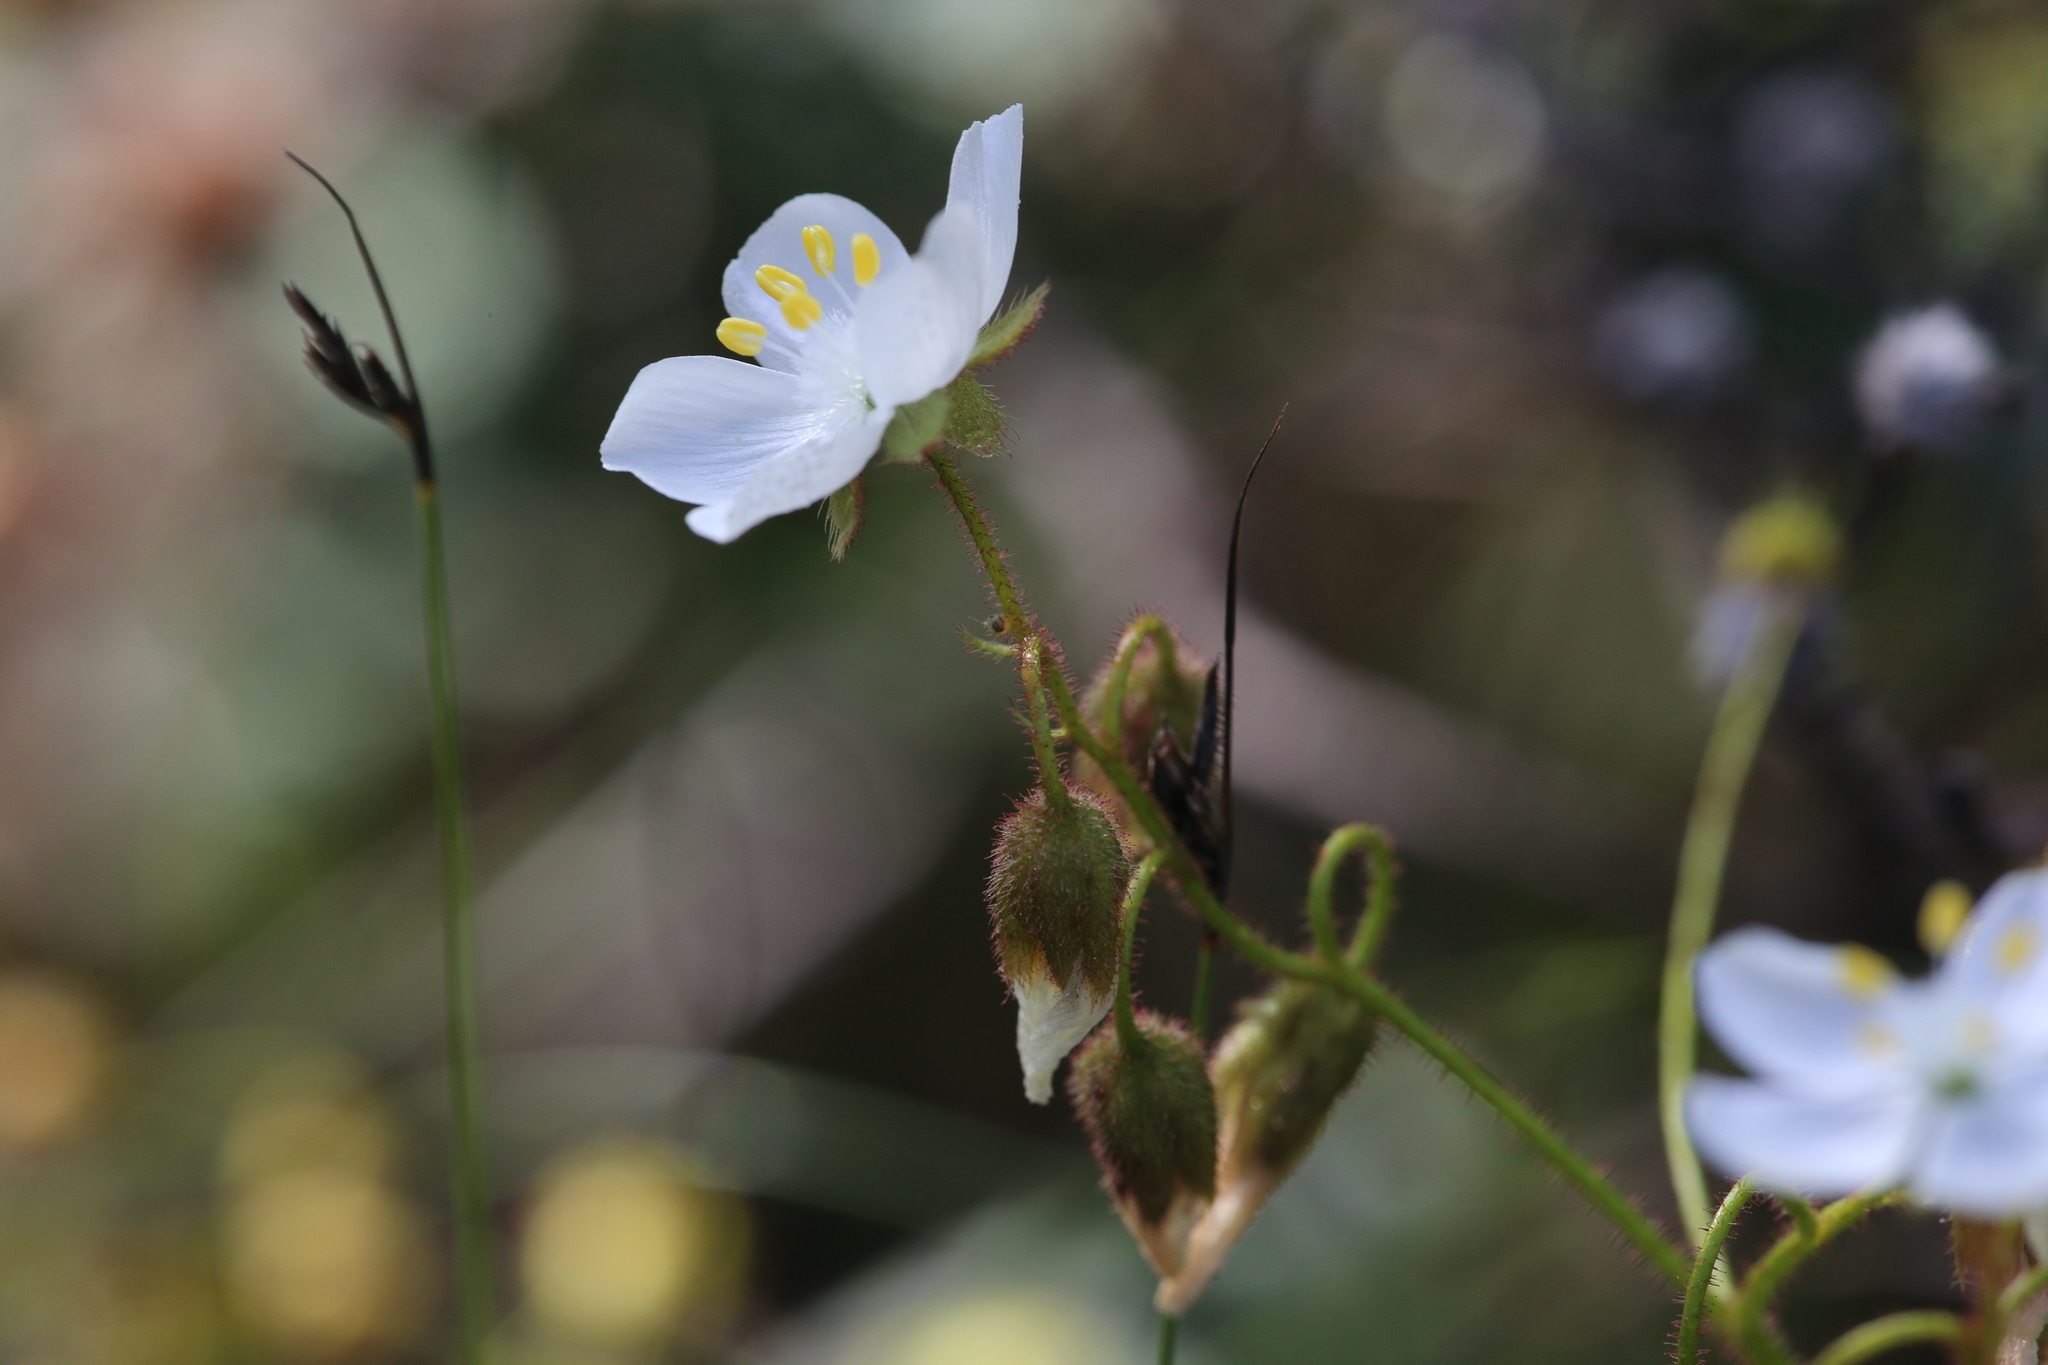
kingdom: Plantae
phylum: Tracheophyta
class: Magnoliopsida
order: Caryophyllales
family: Droseraceae
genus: Drosera
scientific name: Drosera macrantha
